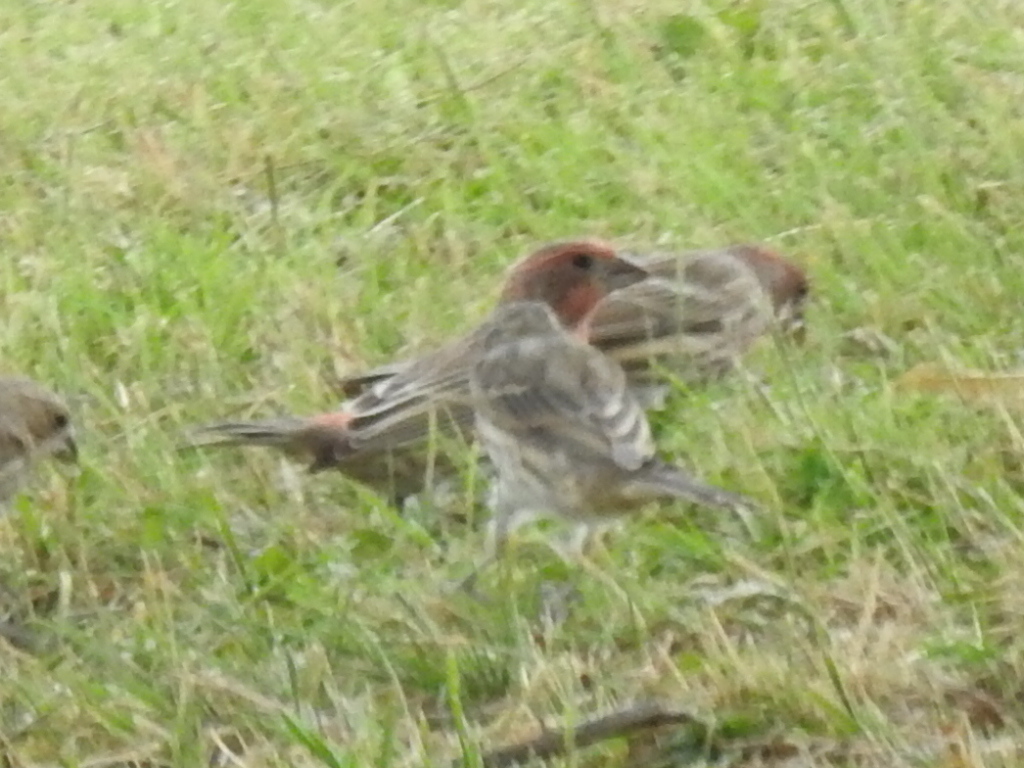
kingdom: Animalia
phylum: Chordata
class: Aves
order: Passeriformes
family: Fringillidae
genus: Haemorhous
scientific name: Haemorhous mexicanus
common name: House finch
